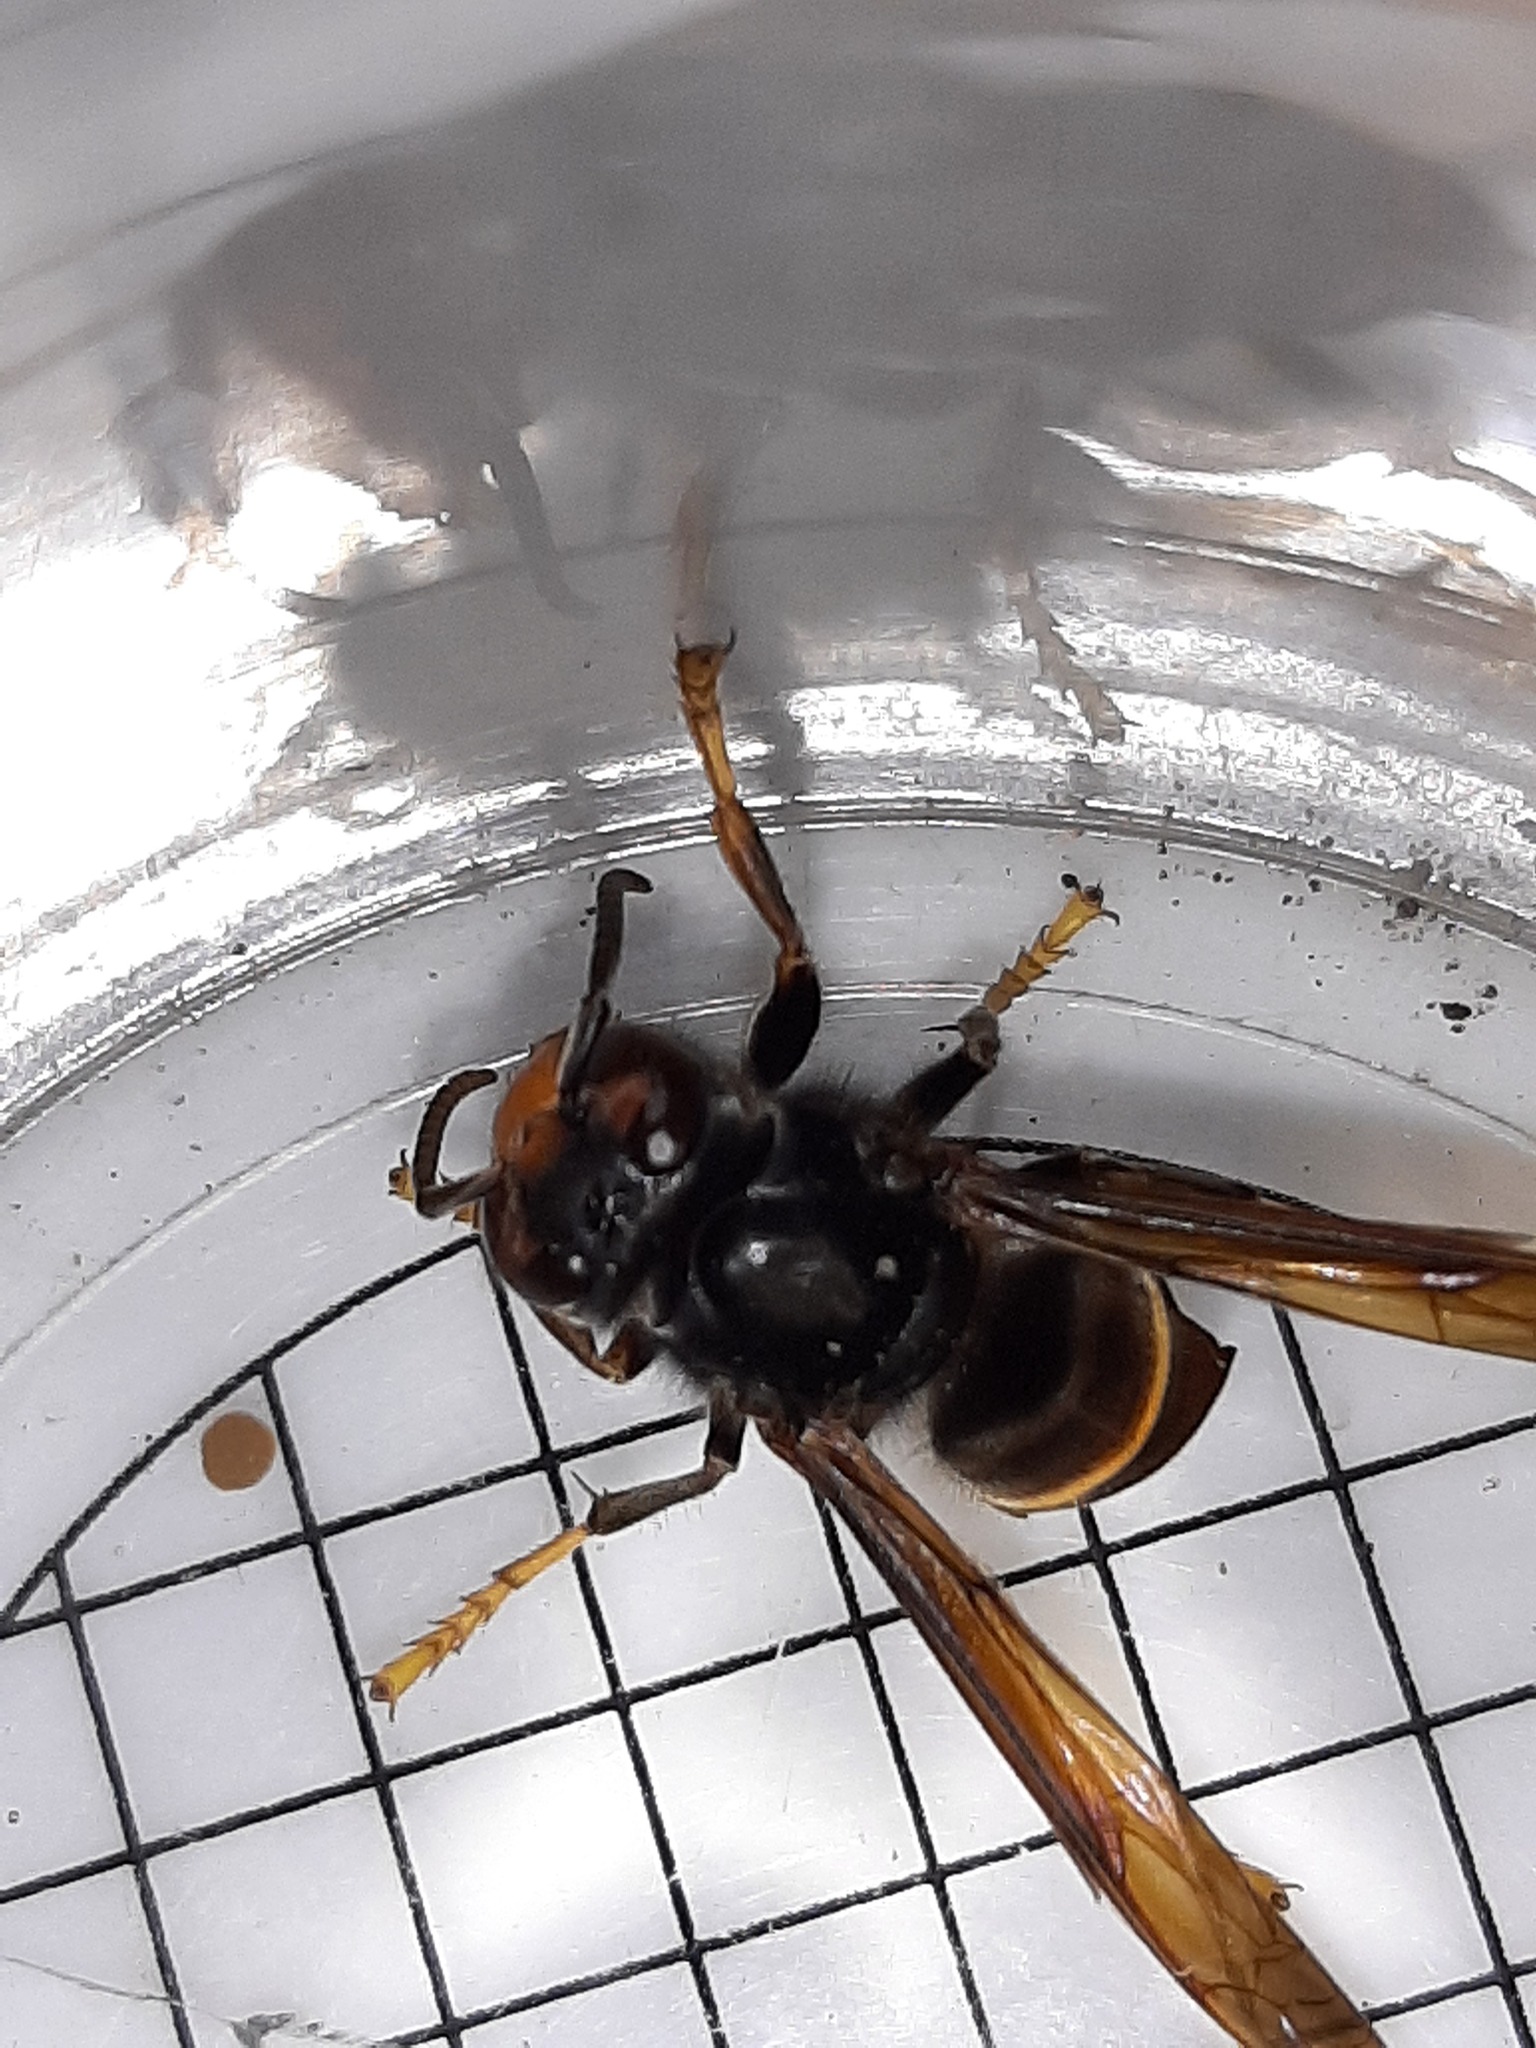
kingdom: Animalia
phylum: Arthropoda
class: Insecta
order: Hymenoptera
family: Vespidae
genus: Vespa
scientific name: Vespa velutina
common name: Asian hornet
